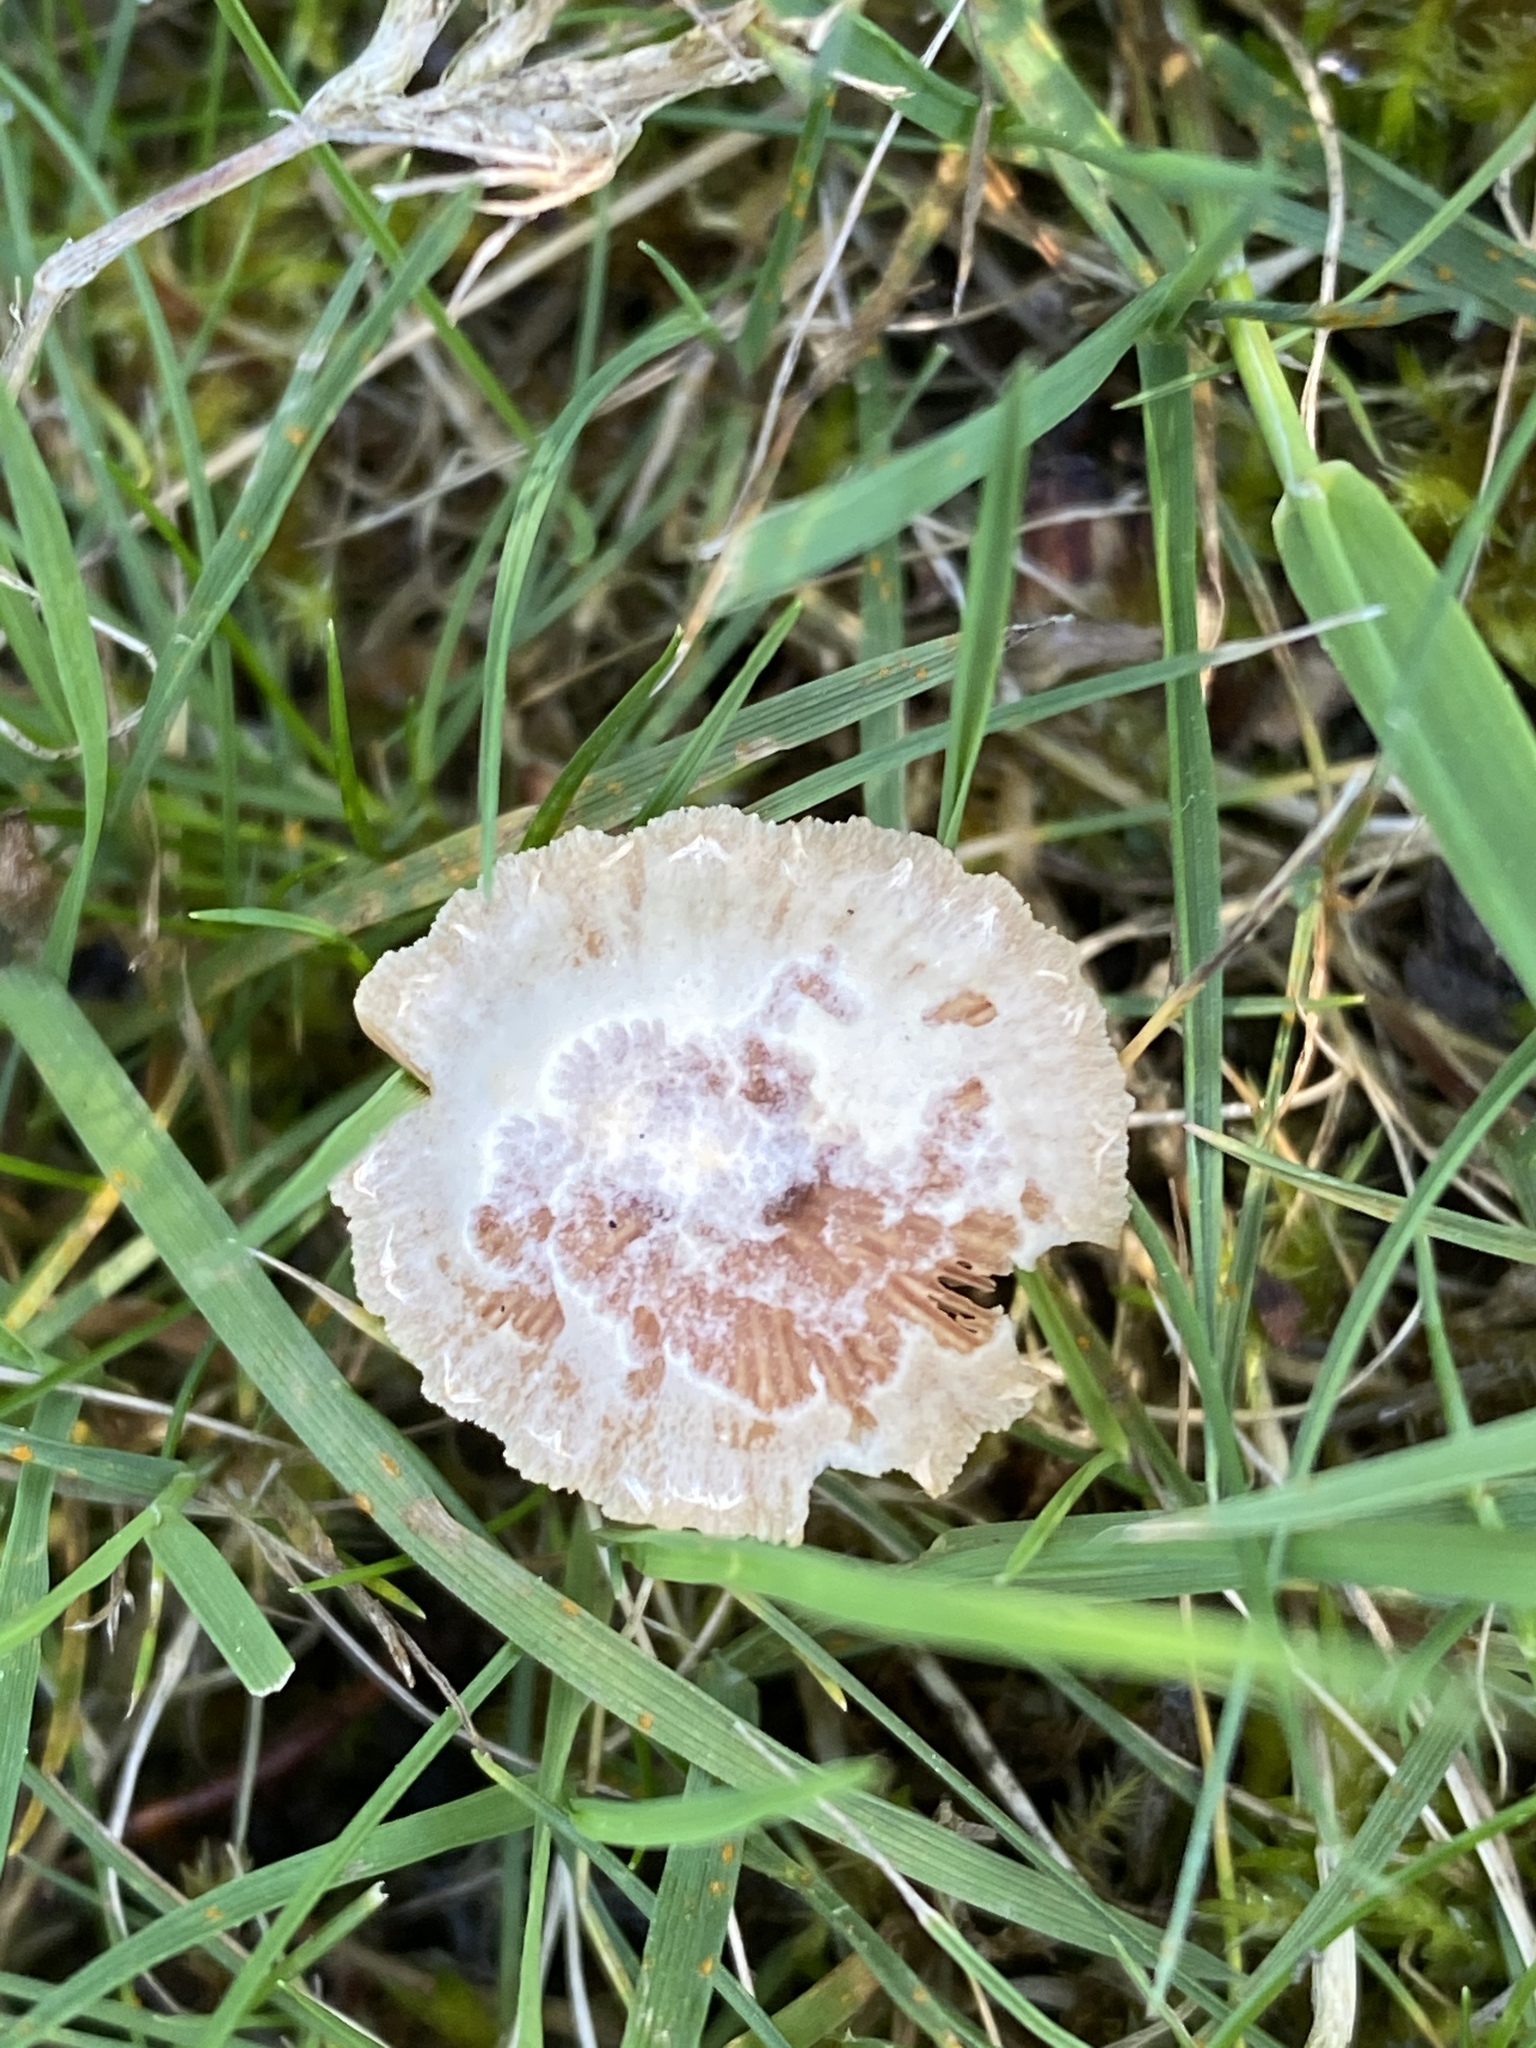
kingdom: Fungi
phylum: Basidiomycota
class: Agaricomycetes
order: Agaricales
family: Tubariaceae
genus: Tubaria
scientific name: Tubaria furfuracea
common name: Scurfy twiglet
